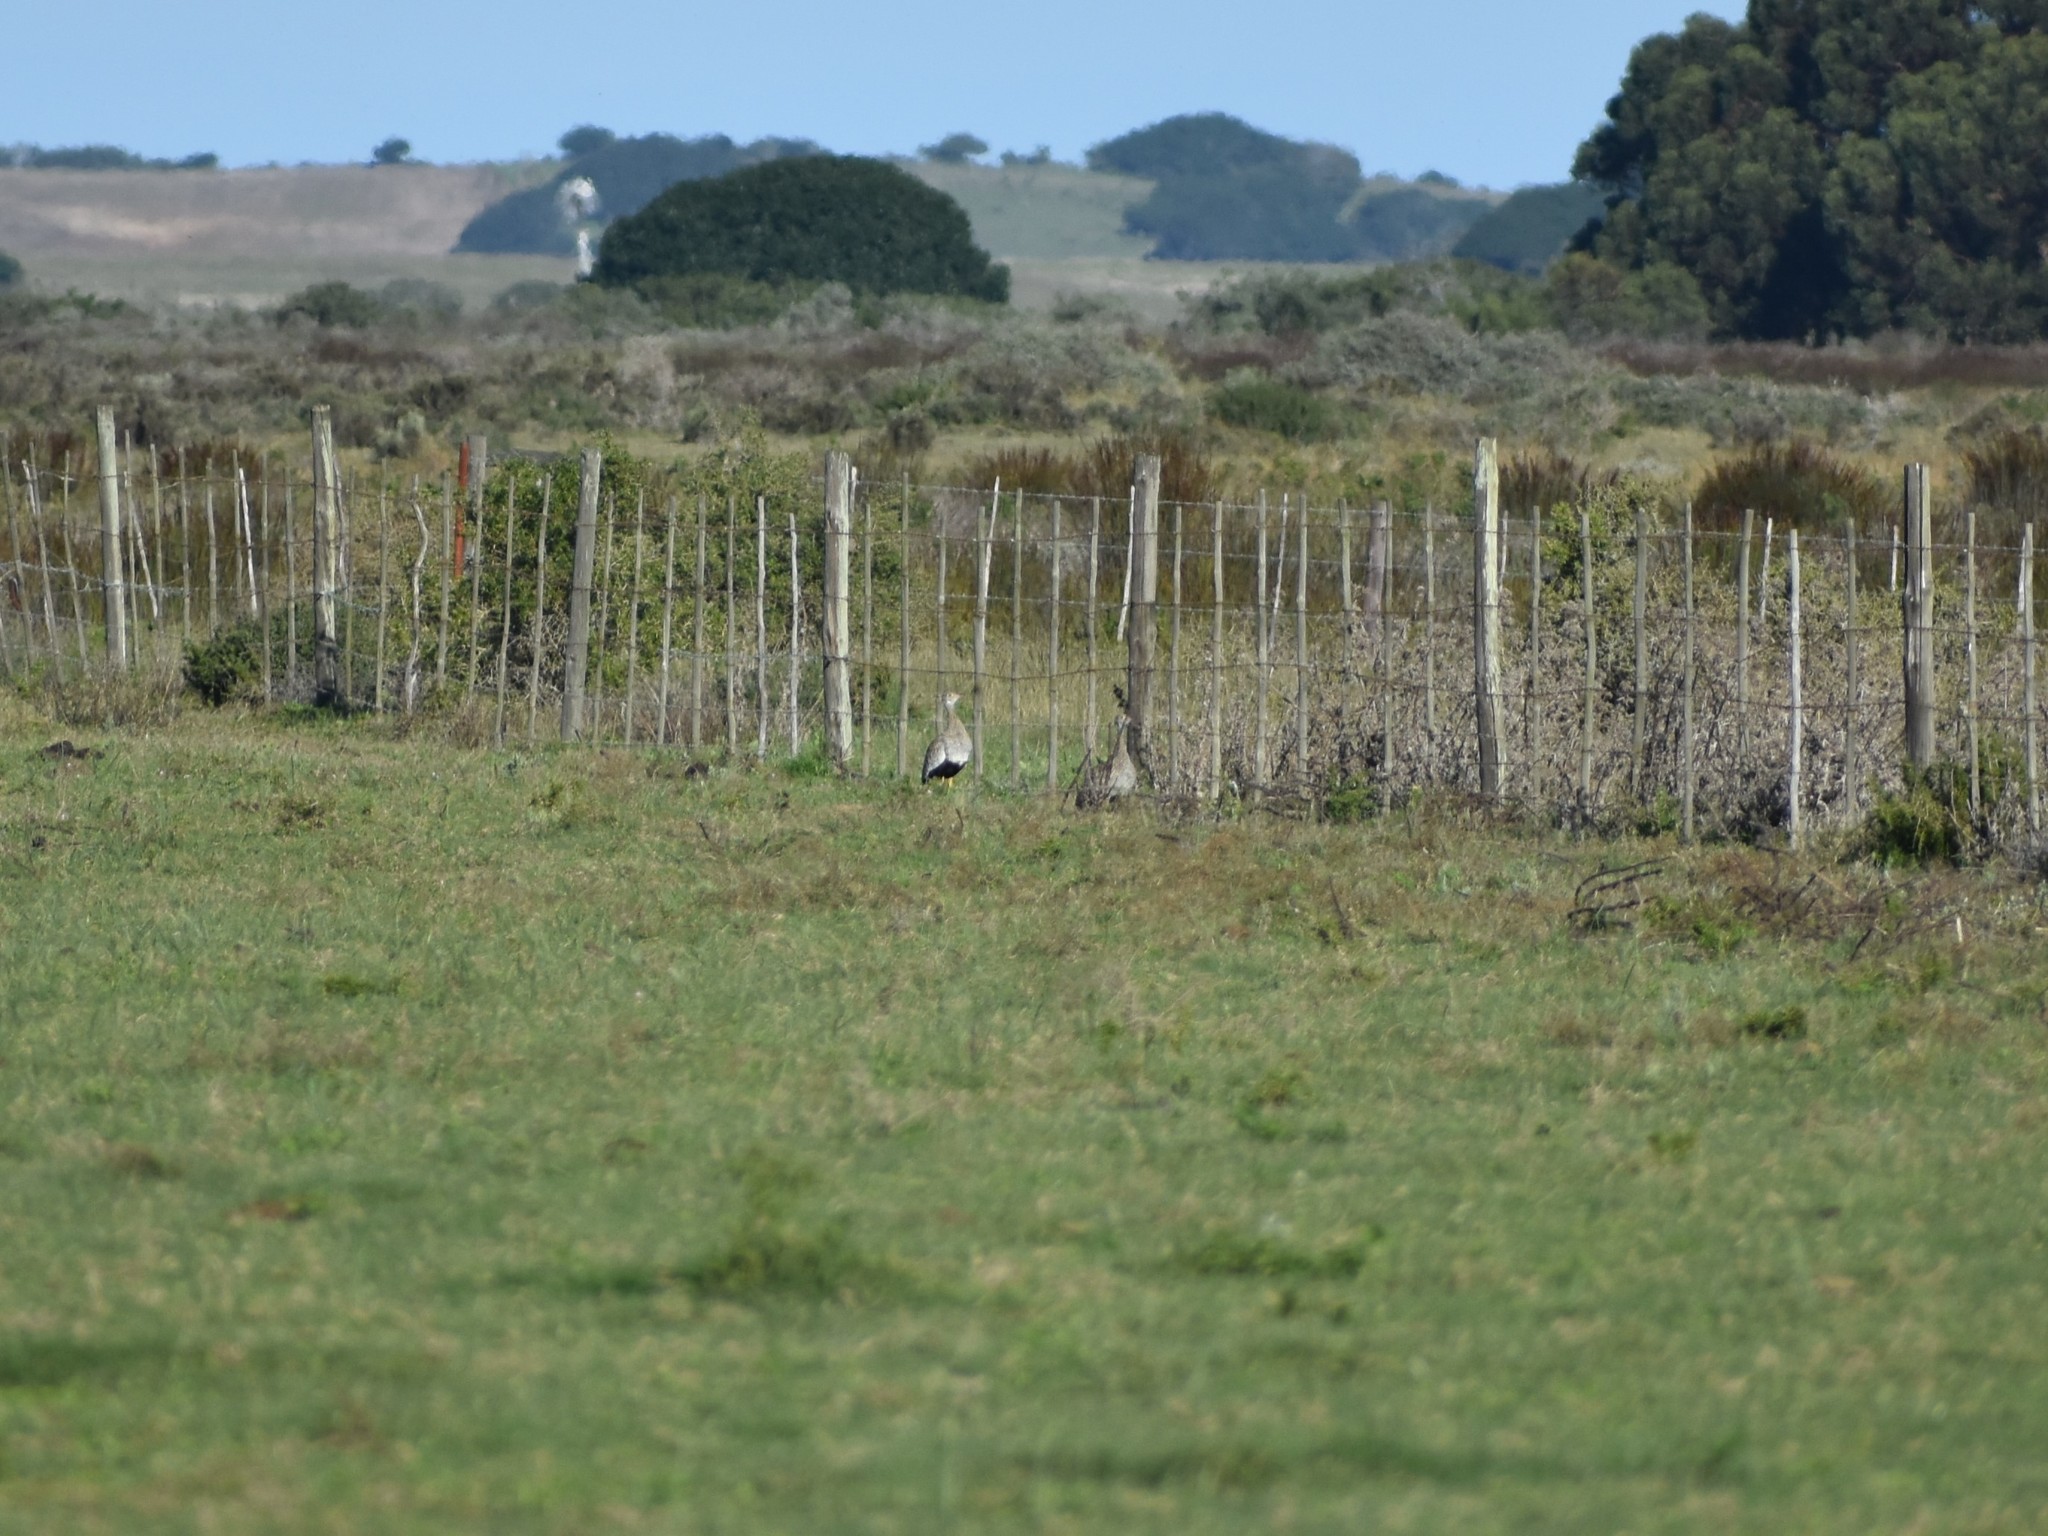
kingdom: Animalia
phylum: Chordata
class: Aves
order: Otidiformes
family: Otididae
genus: Afrotis
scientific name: Afrotis afra
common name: Southern black korhaan
